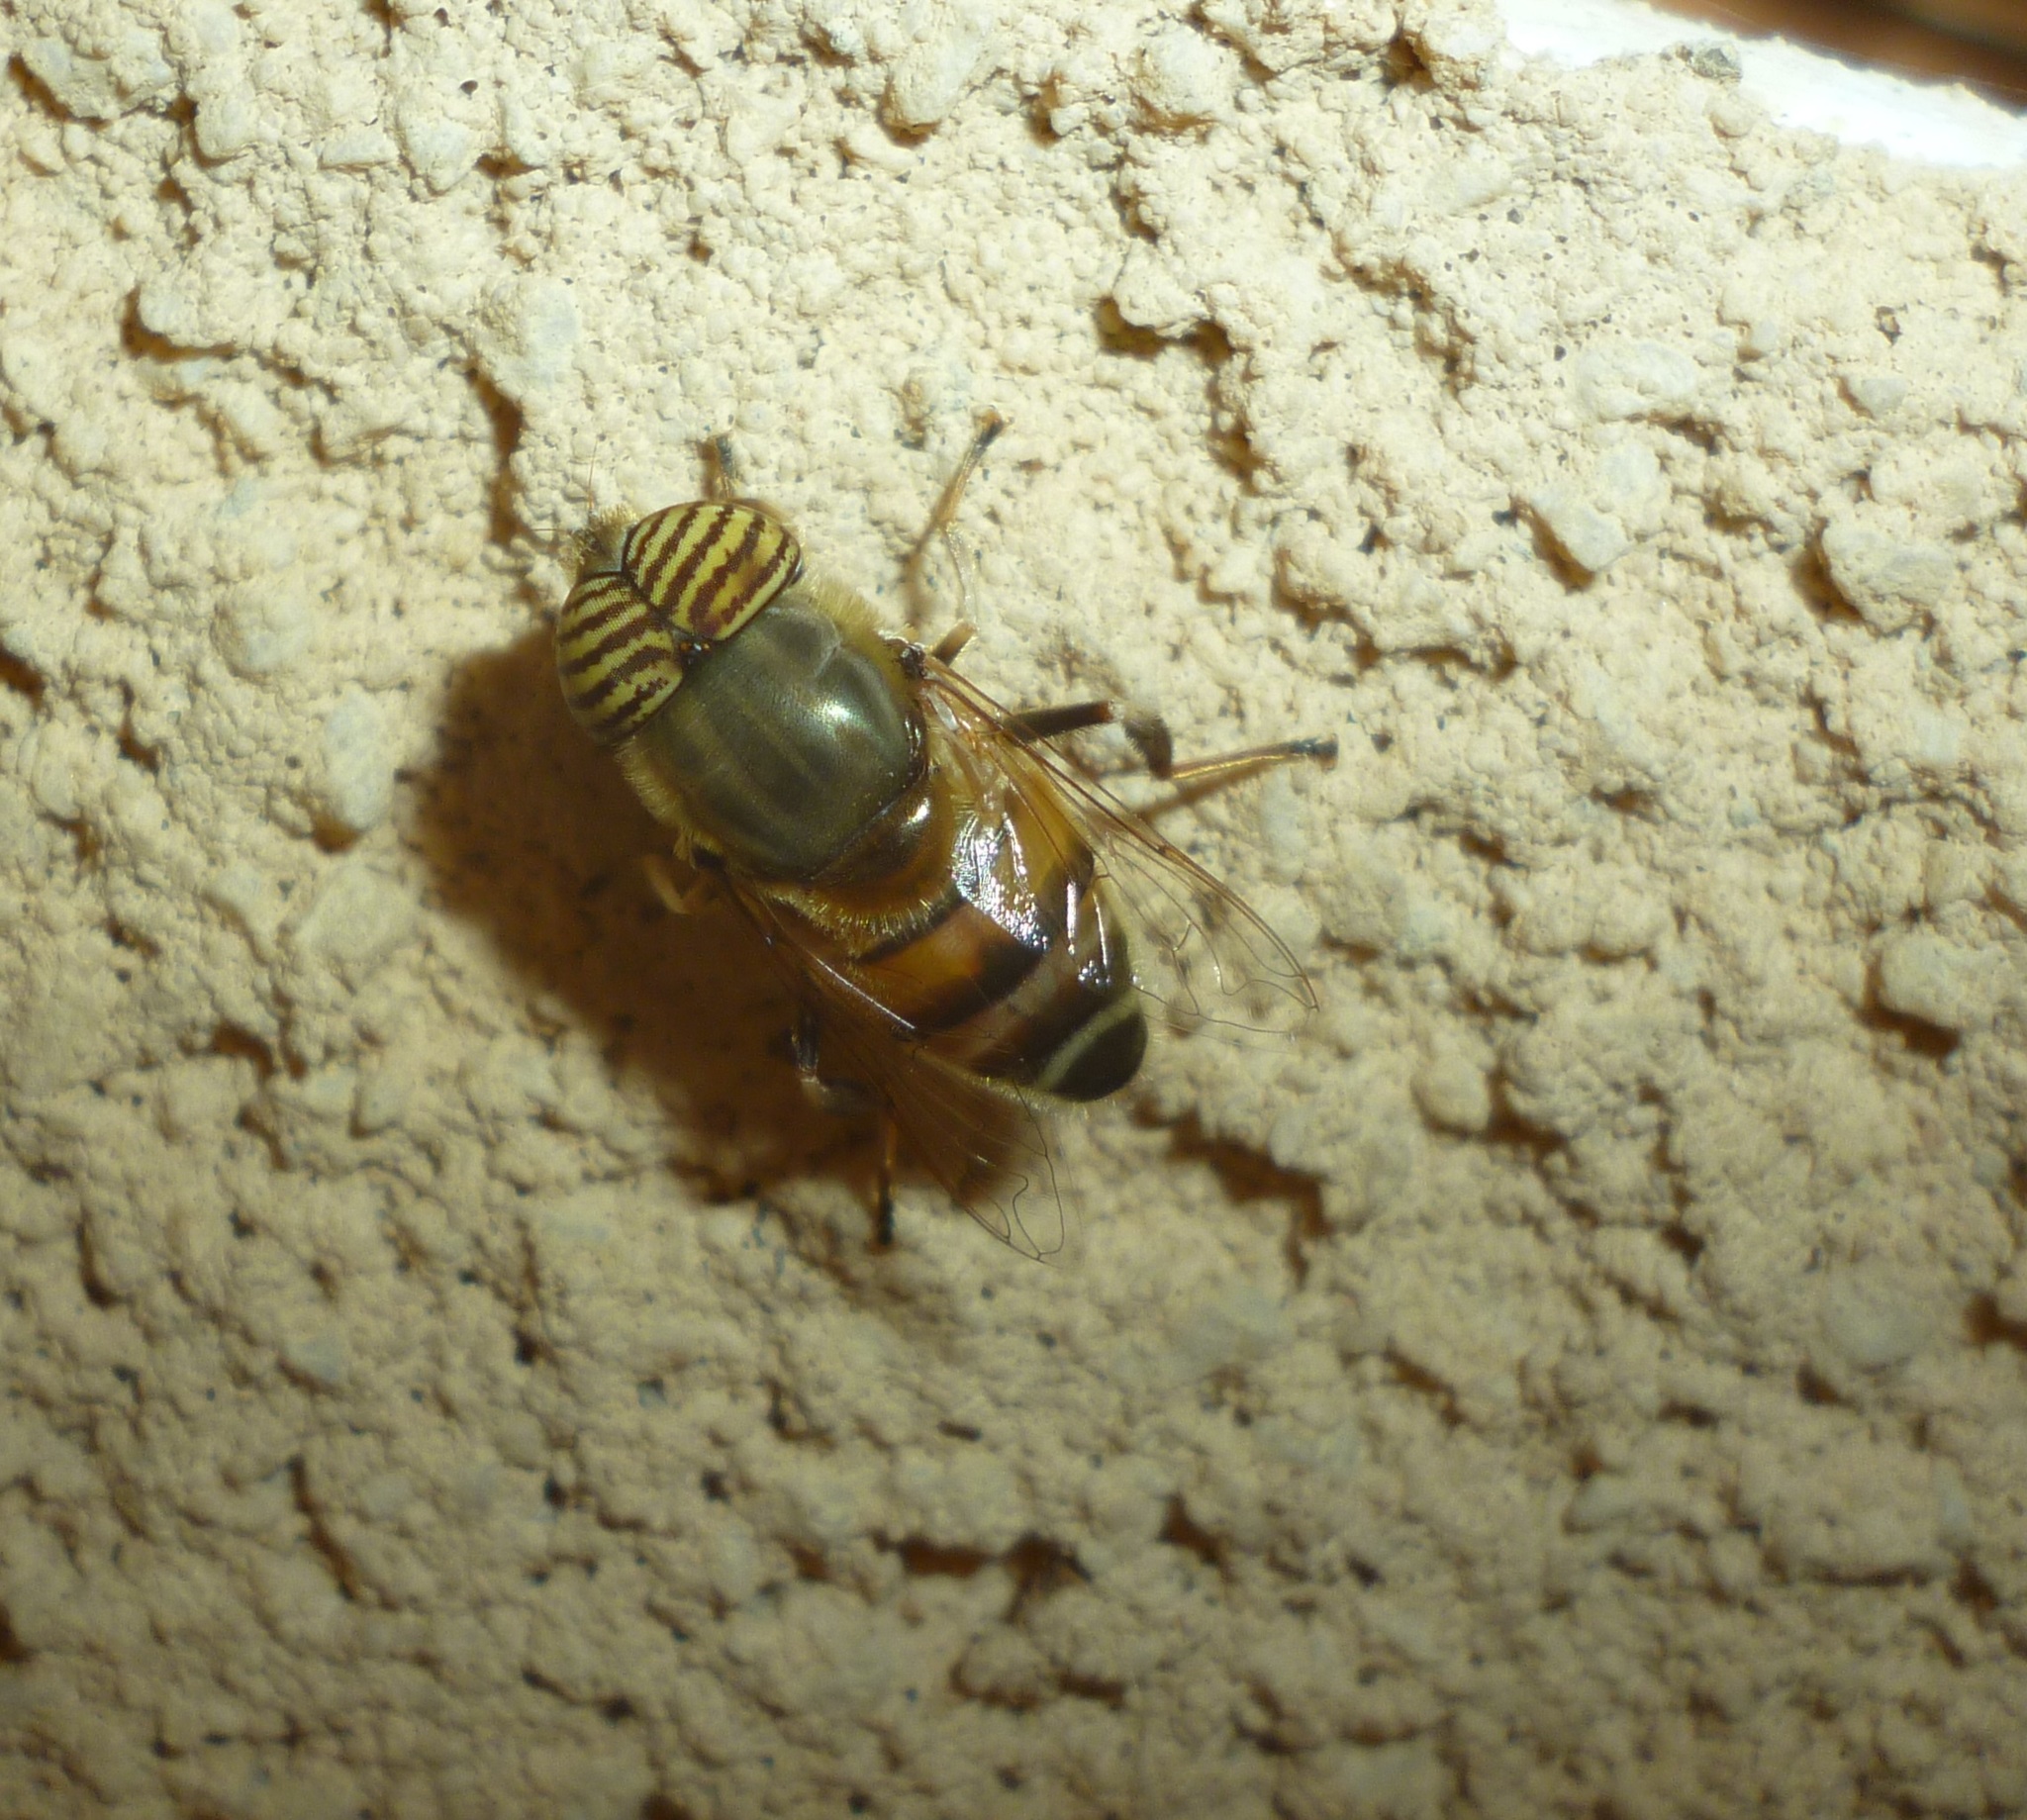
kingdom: Animalia
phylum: Arthropoda
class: Insecta
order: Diptera
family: Syrphidae
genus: Eristalinus
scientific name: Eristalinus taeniops
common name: Syrphid fly
